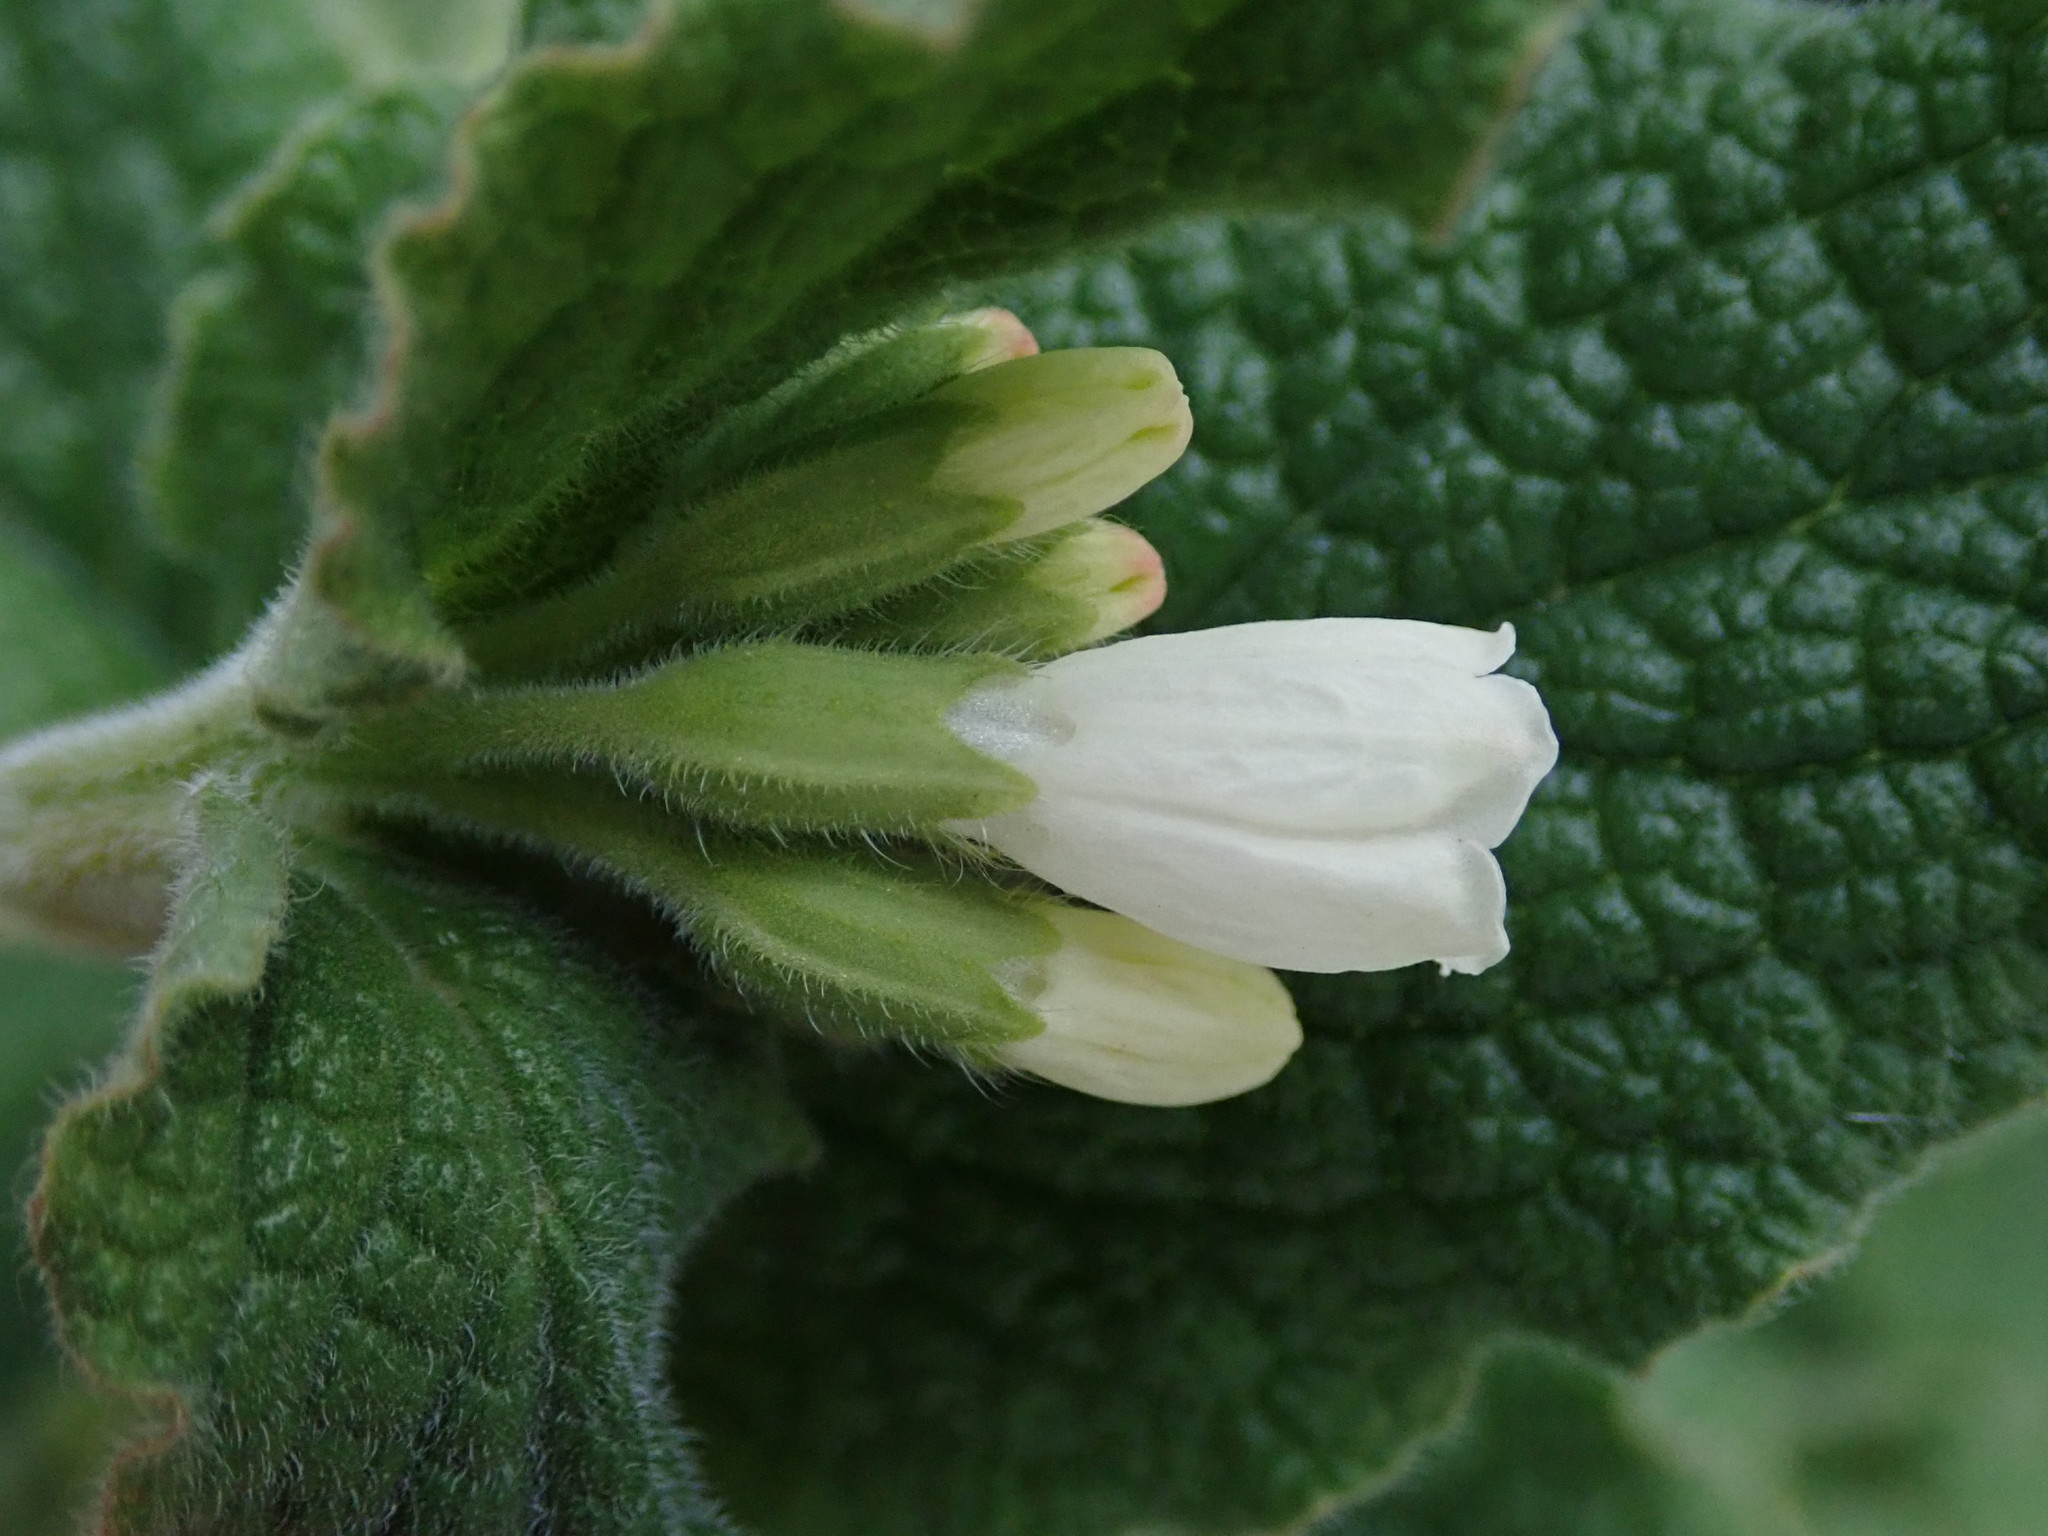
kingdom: Plantae
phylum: Tracheophyta
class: Magnoliopsida
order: Boraginales
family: Boraginaceae
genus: Symphytum
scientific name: Symphytum orientale
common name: White comfrey
